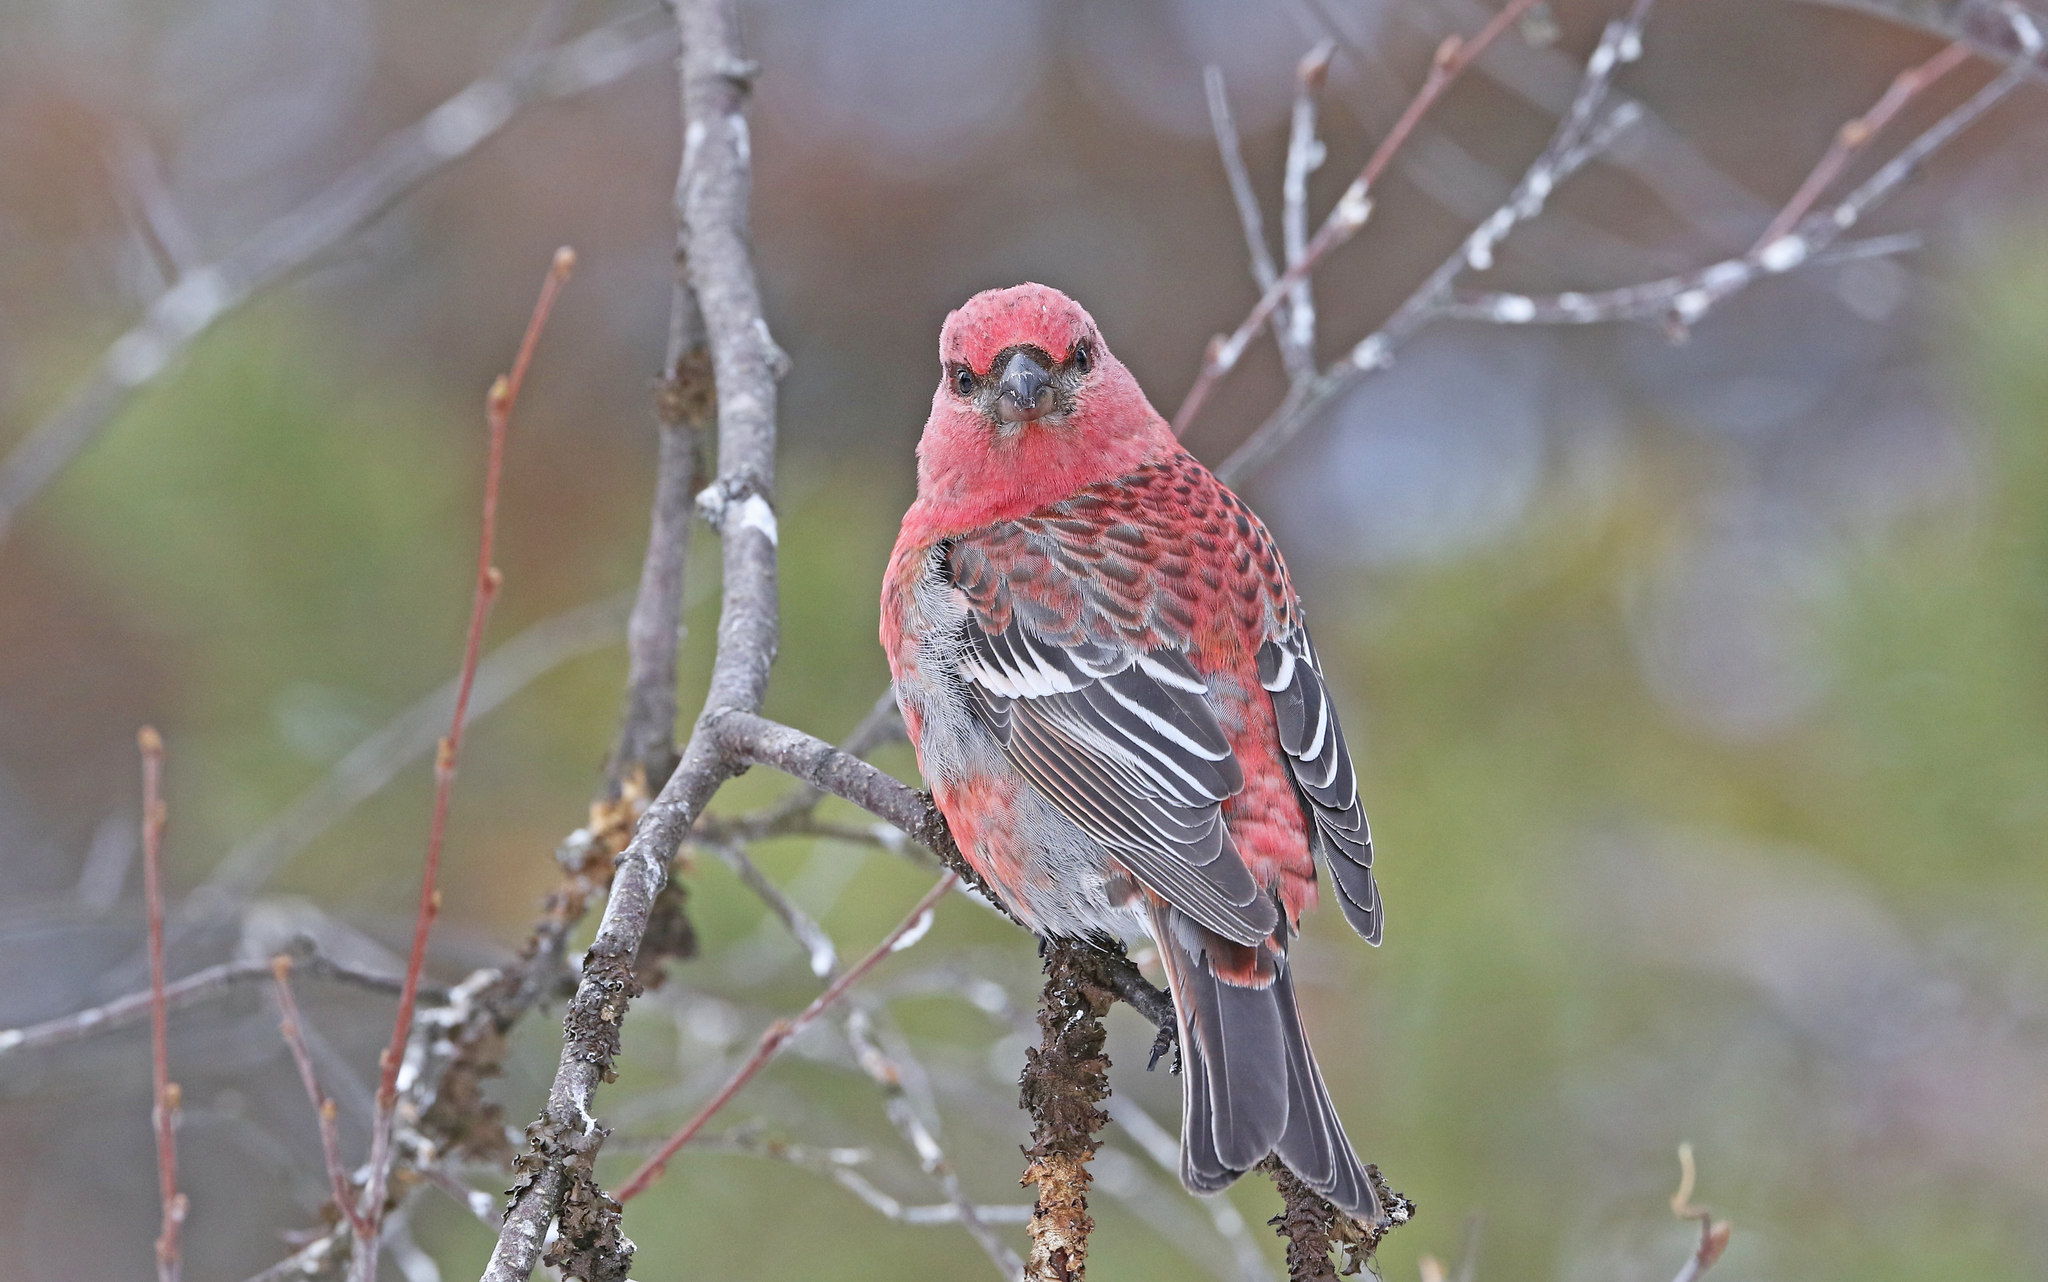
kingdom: Animalia
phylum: Chordata
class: Aves
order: Passeriformes
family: Fringillidae
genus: Pinicola
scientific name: Pinicola enucleator
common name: Pine grosbeak
